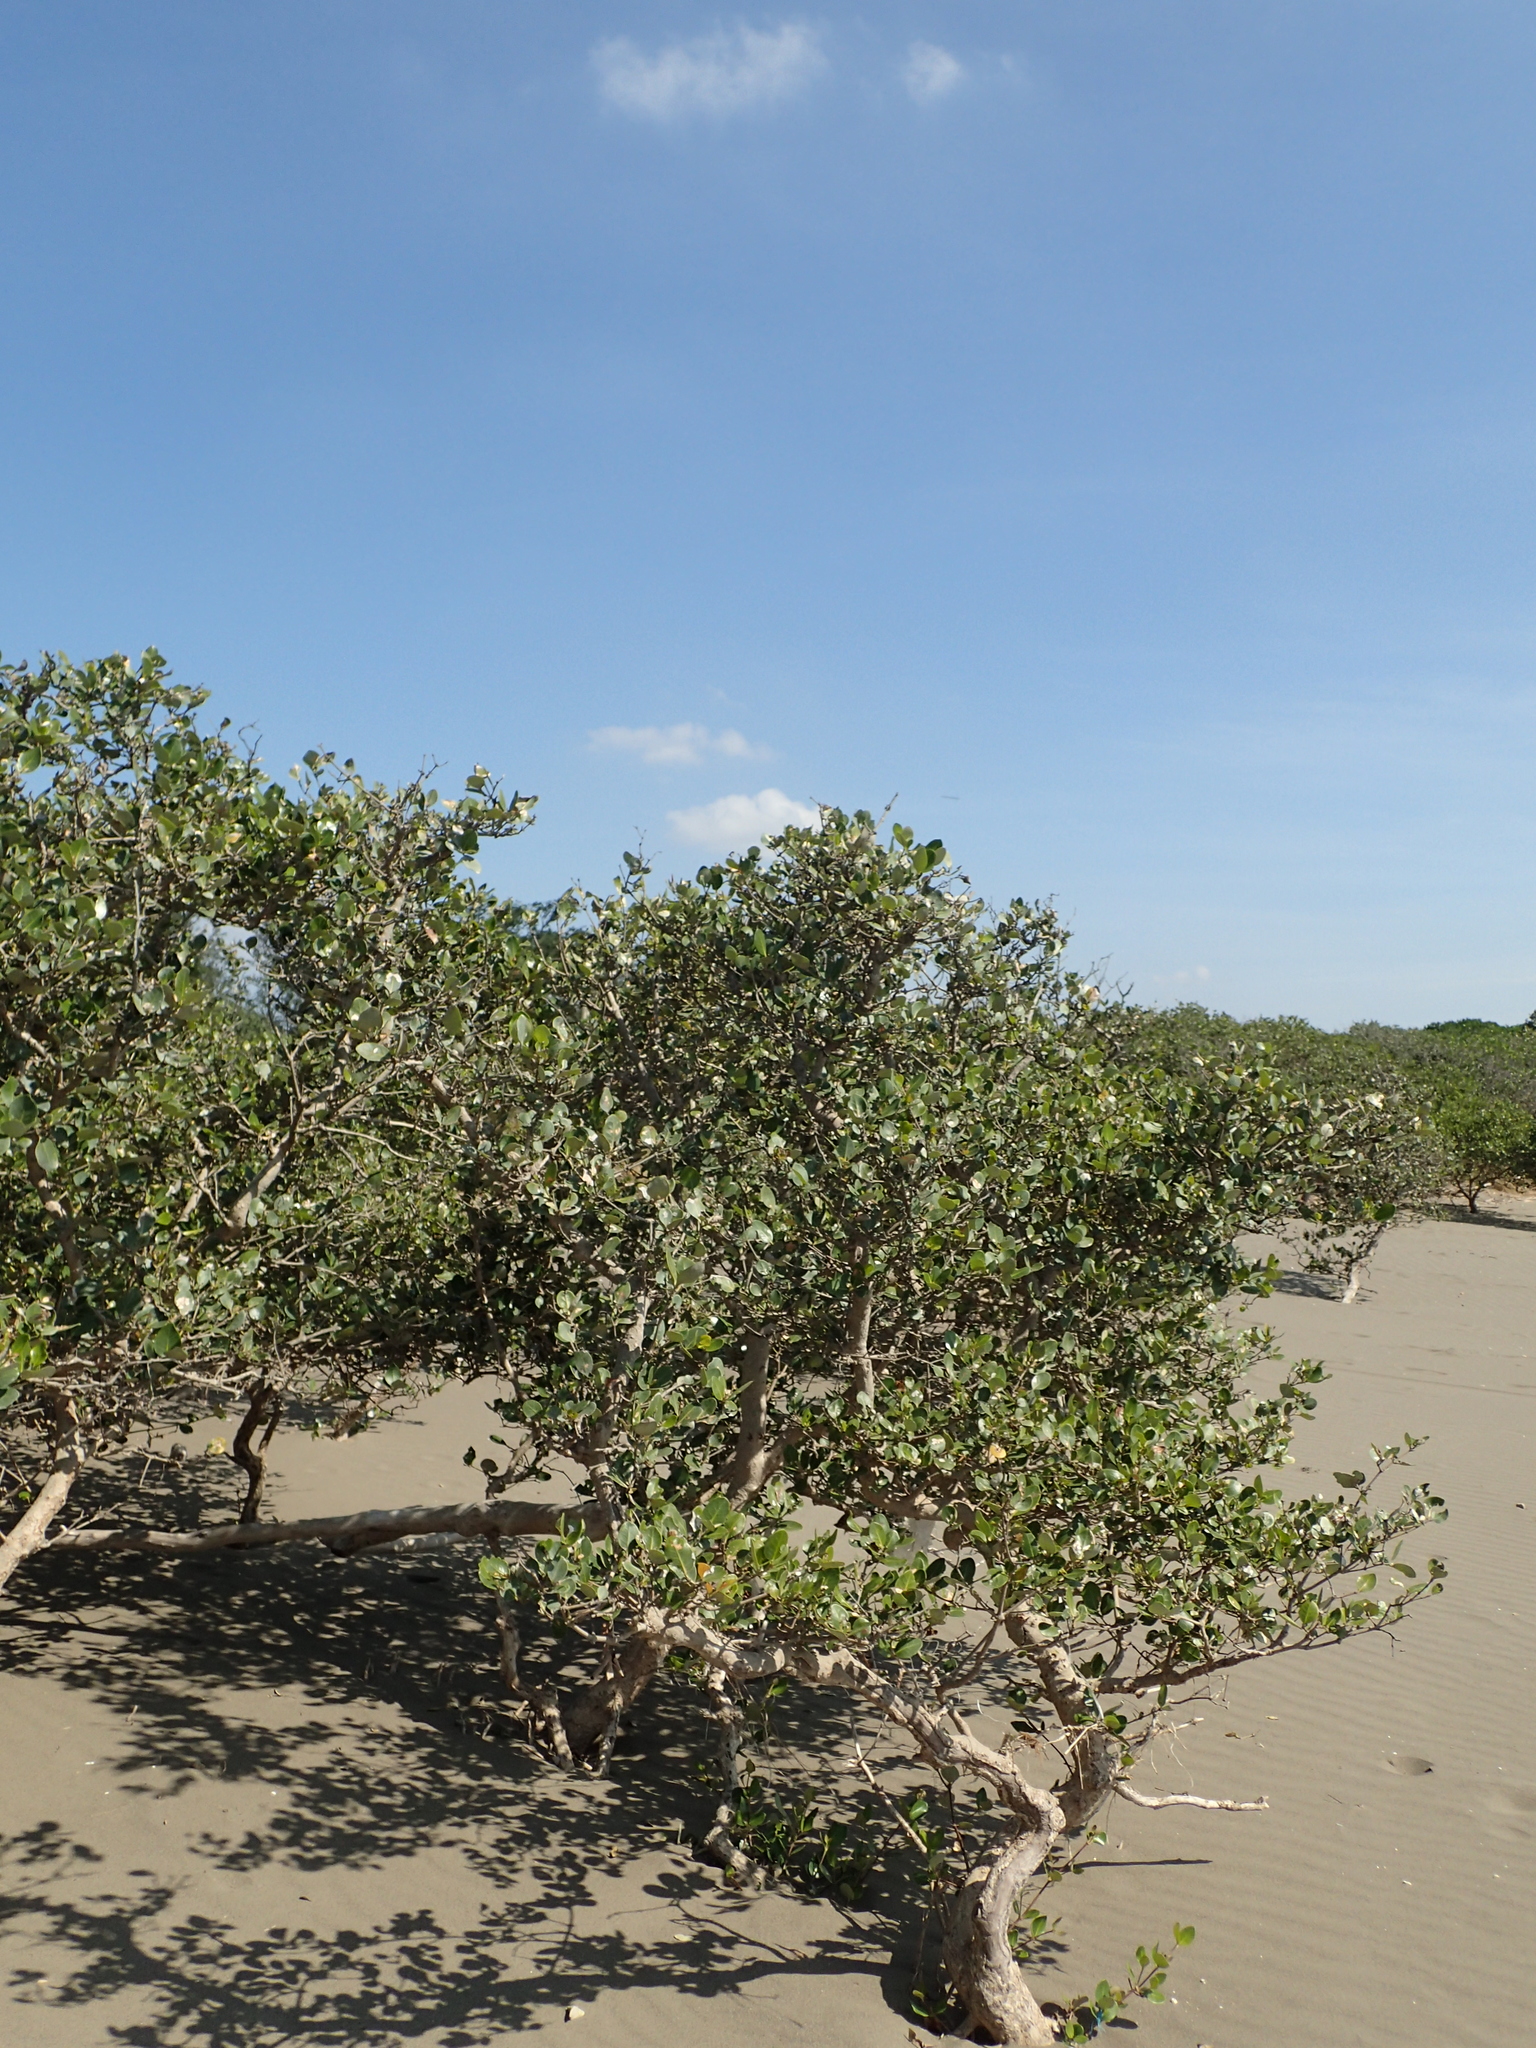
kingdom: Plantae
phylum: Tracheophyta
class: Magnoliopsida
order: Lamiales
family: Acanthaceae
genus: Avicennia
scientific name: Avicennia marina
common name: Gray mangrove
